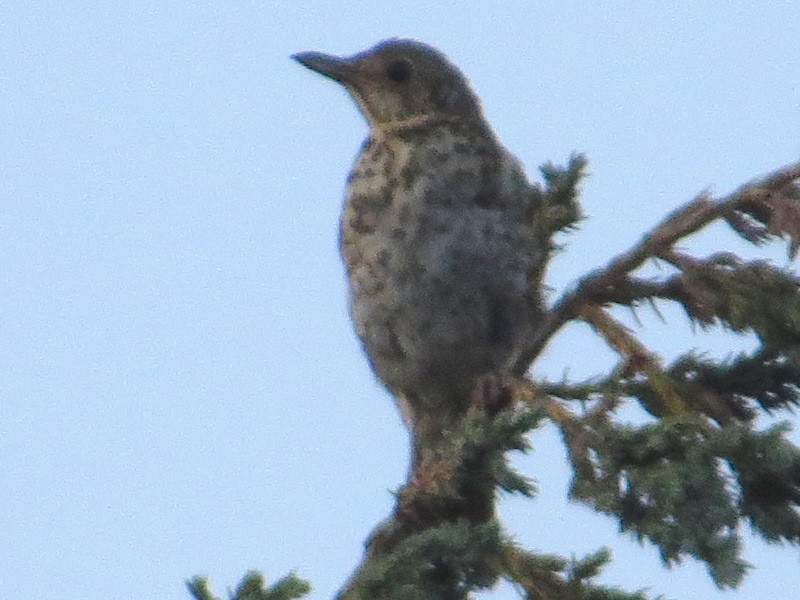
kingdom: Animalia
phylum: Chordata
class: Aves
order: Passeriformes
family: Turdidae
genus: Turdus
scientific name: Turdus philomelos
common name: Song thrush
